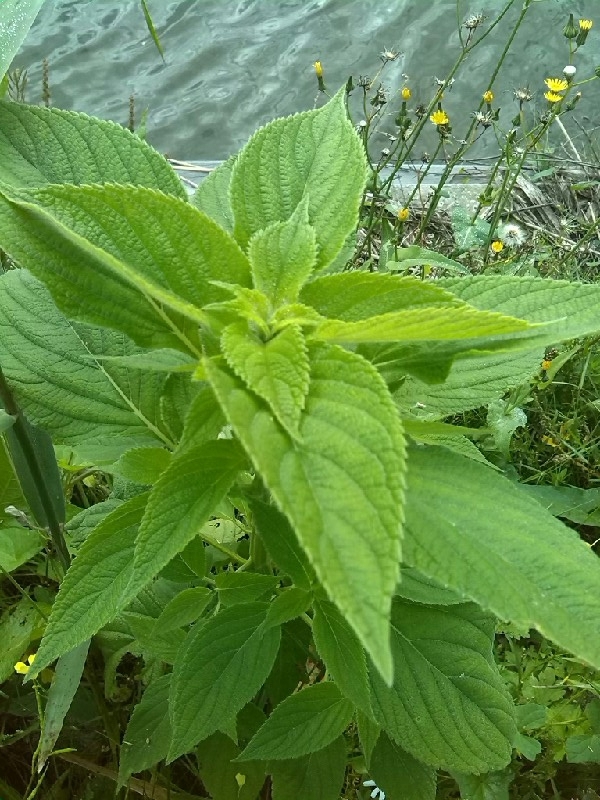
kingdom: Plantae
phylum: Tracheophyta
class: Magnoliopsida
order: Lamiales
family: Lamiaceae
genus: Salvia
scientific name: Salvia hispanica
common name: Chia
